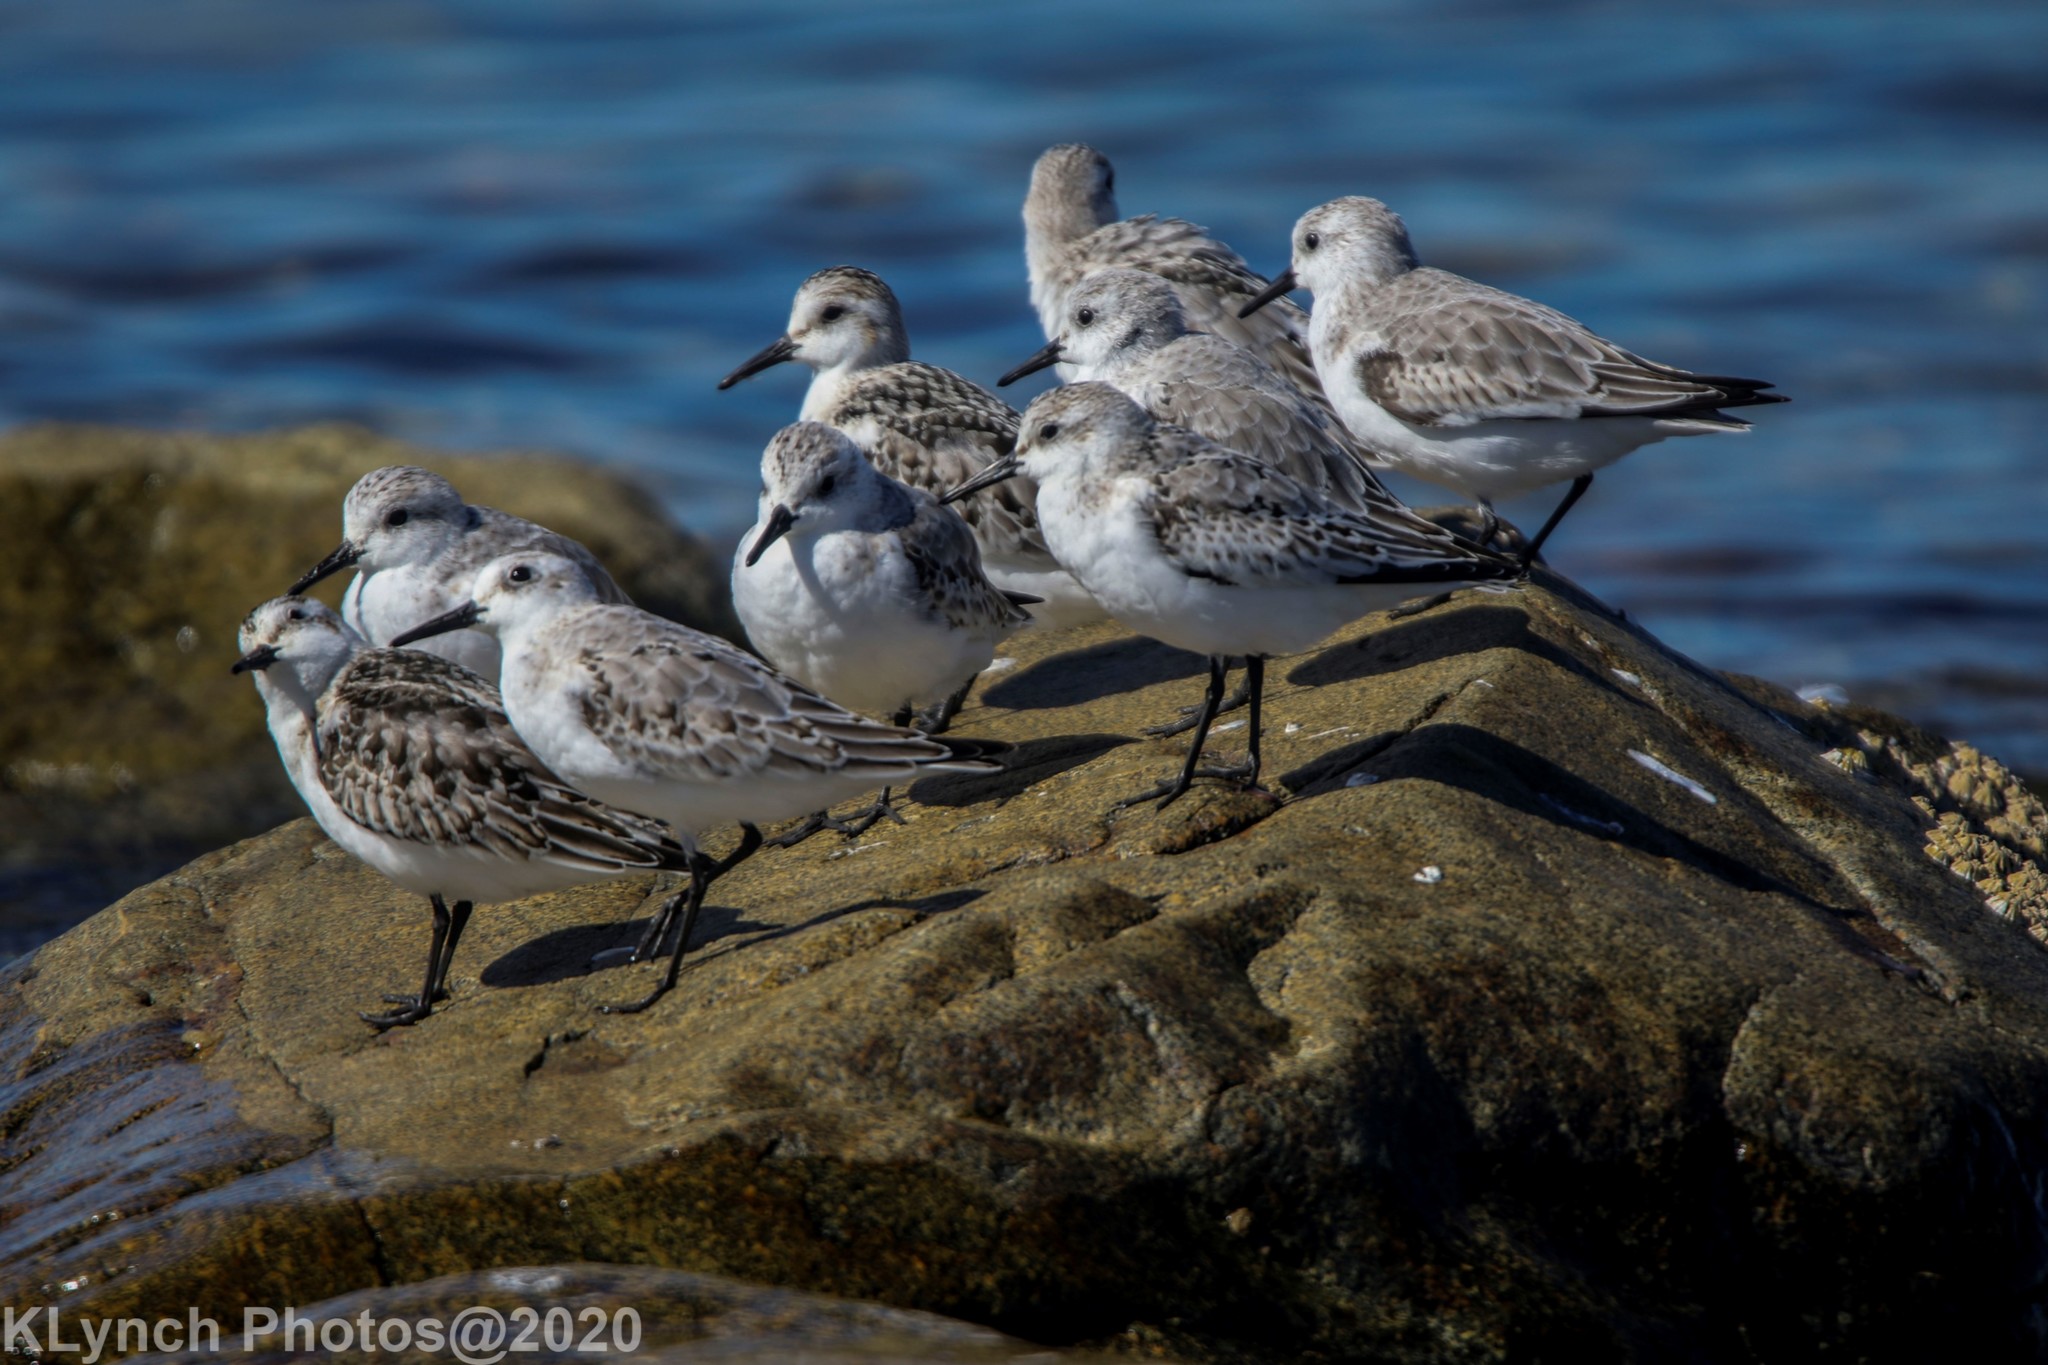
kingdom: Animalia
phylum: Chordata
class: Aves
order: Charadriiformes
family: Scolopacidae
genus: Calidris
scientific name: Calidris alba
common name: Sanderling
